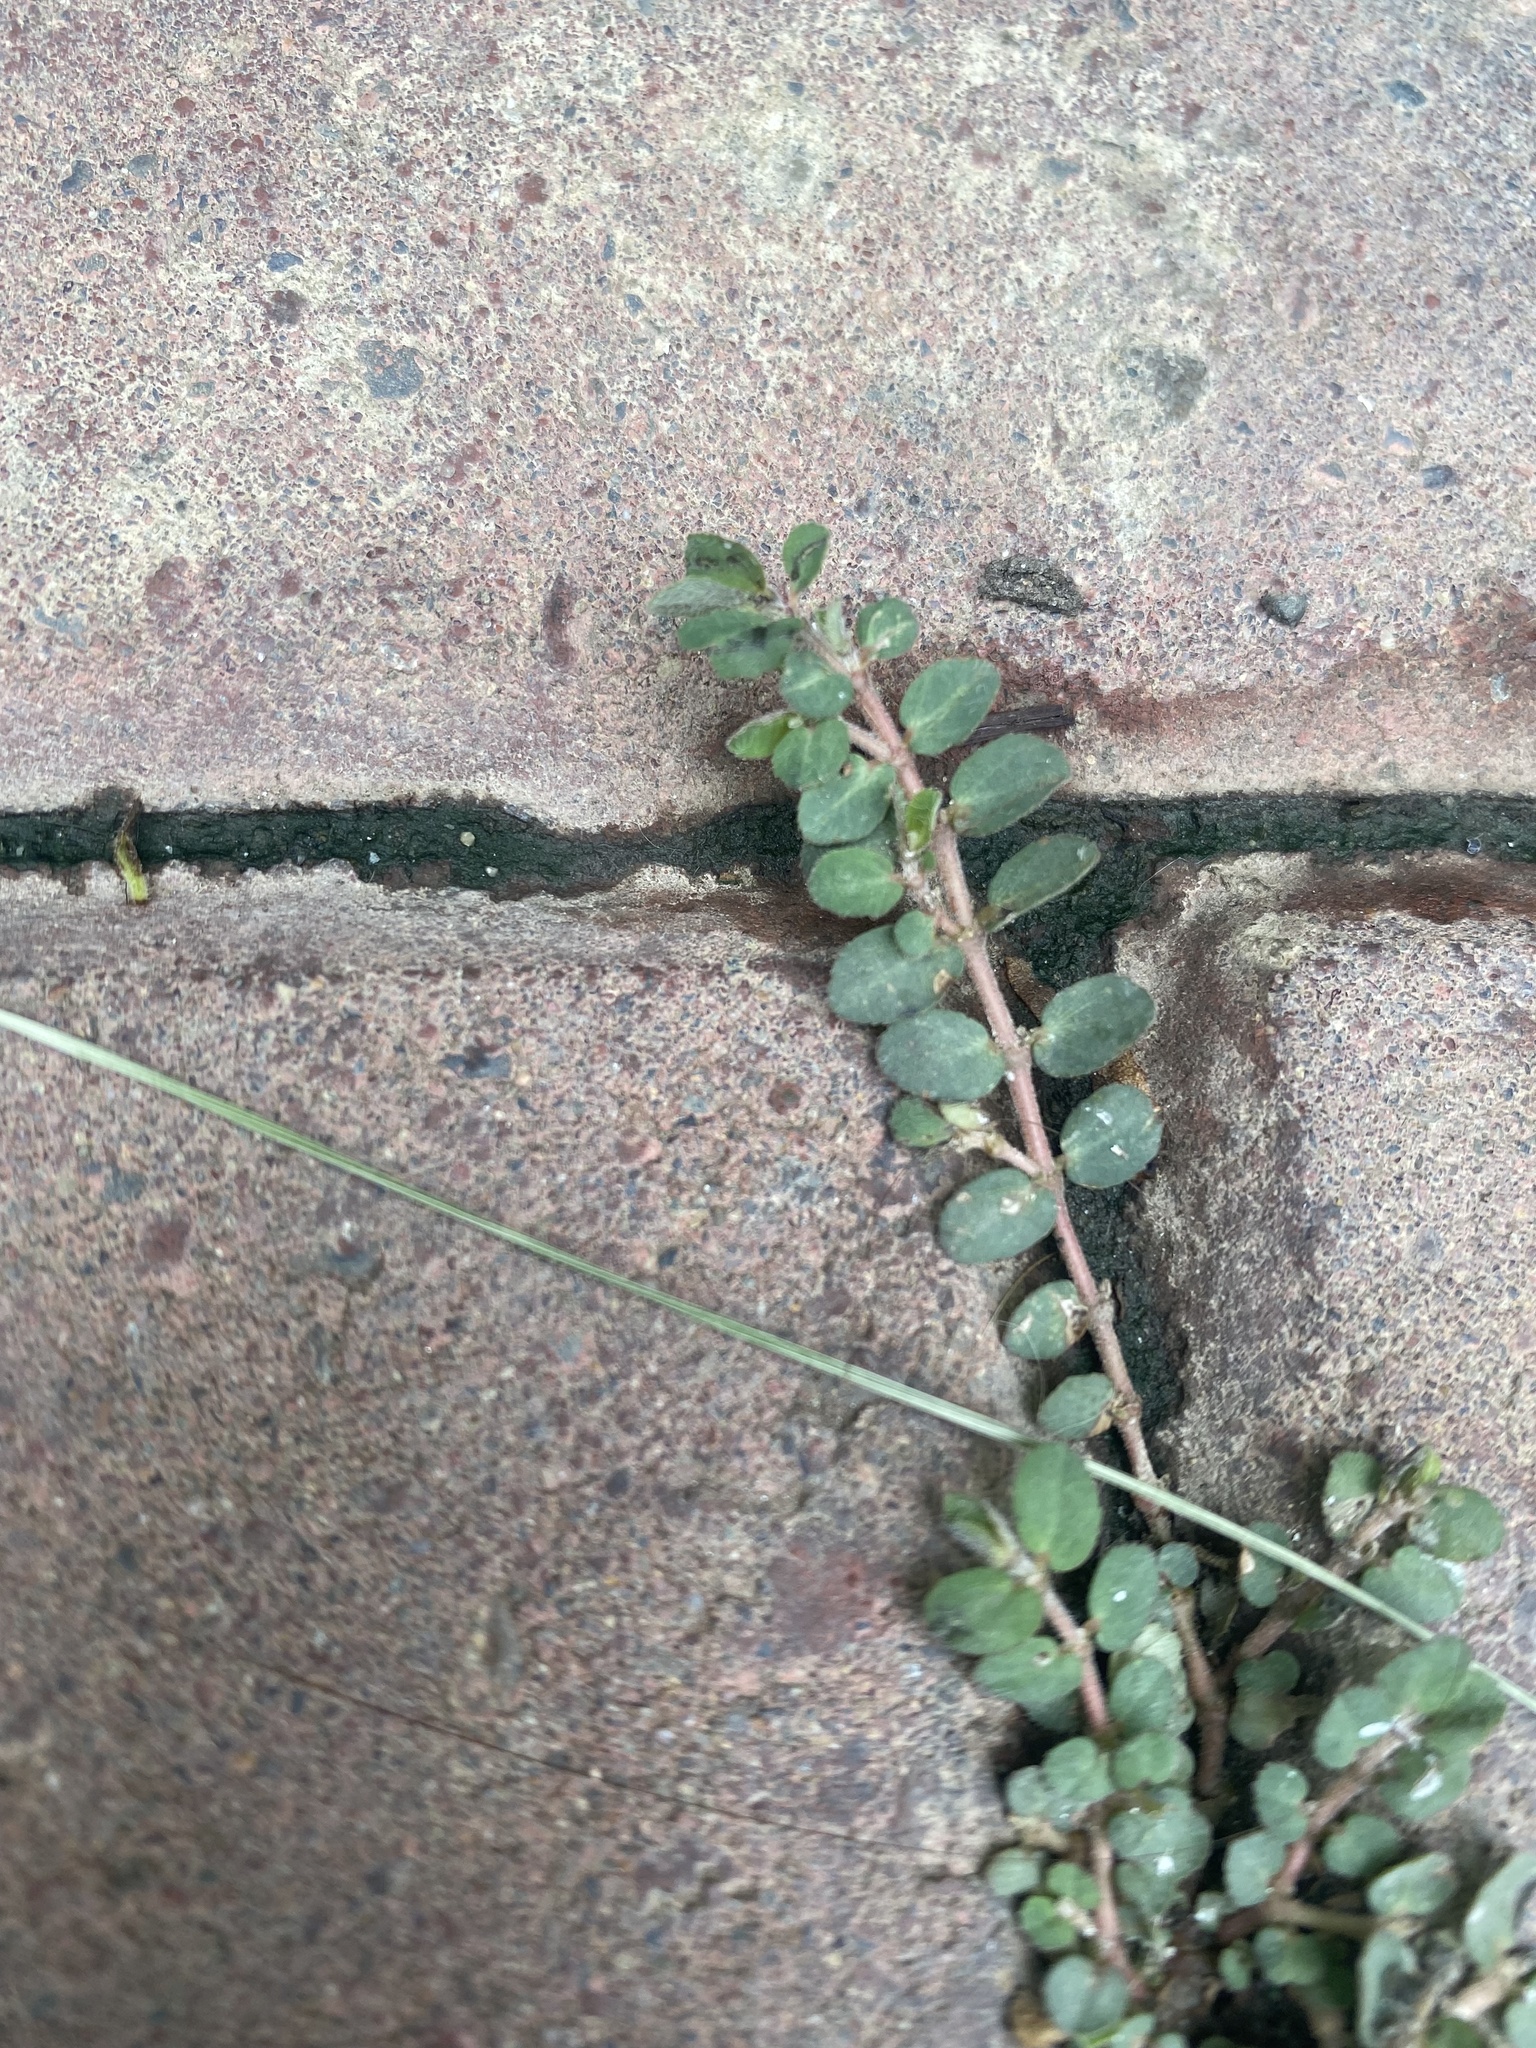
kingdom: Plantae
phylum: Tracheophyta
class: Magnoliopsida
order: Malpighiales
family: Euphorbiaceae
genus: Euphorbia
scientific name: Euphorbia prostrata
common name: Prostrate sandmat
